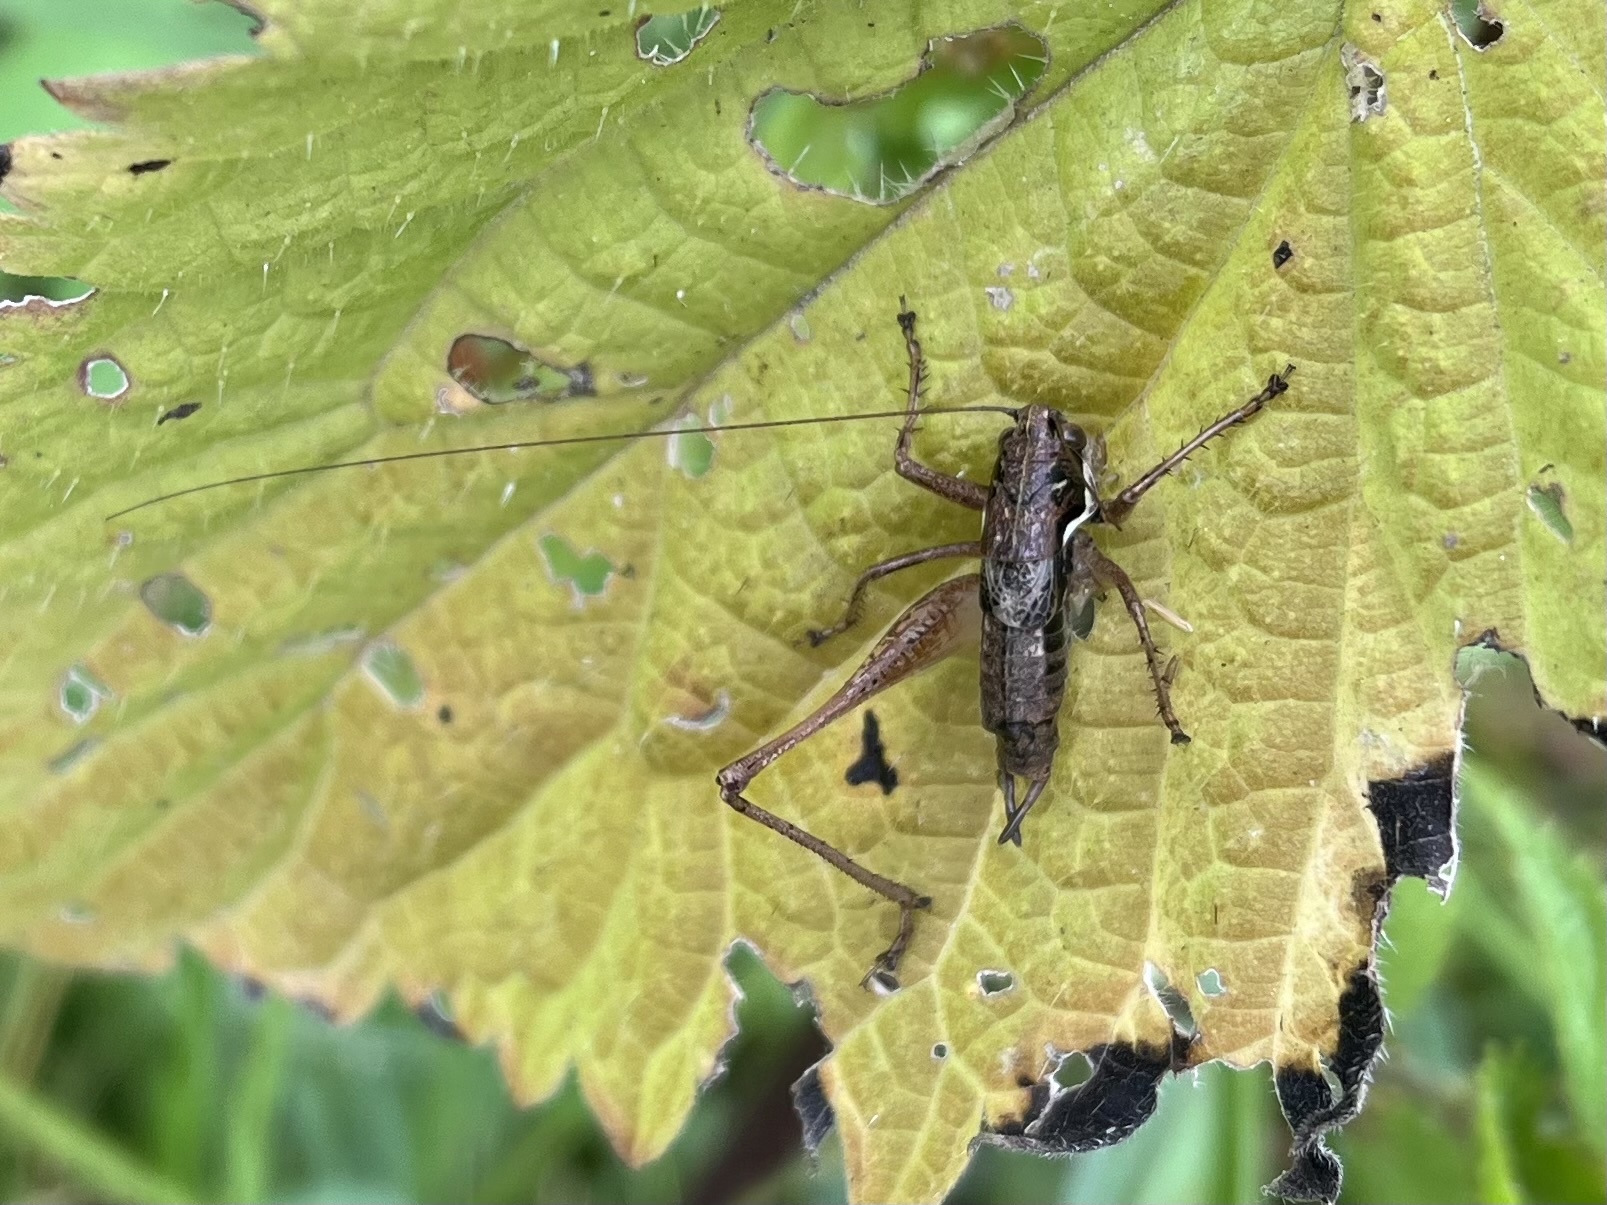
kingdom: Animalia
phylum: Arthropoda
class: Insecta
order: Orthoptera
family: Tettigoniidae
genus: Pachytrachis
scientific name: Pachytrachis gracilis
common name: Graceful bush-cricket
